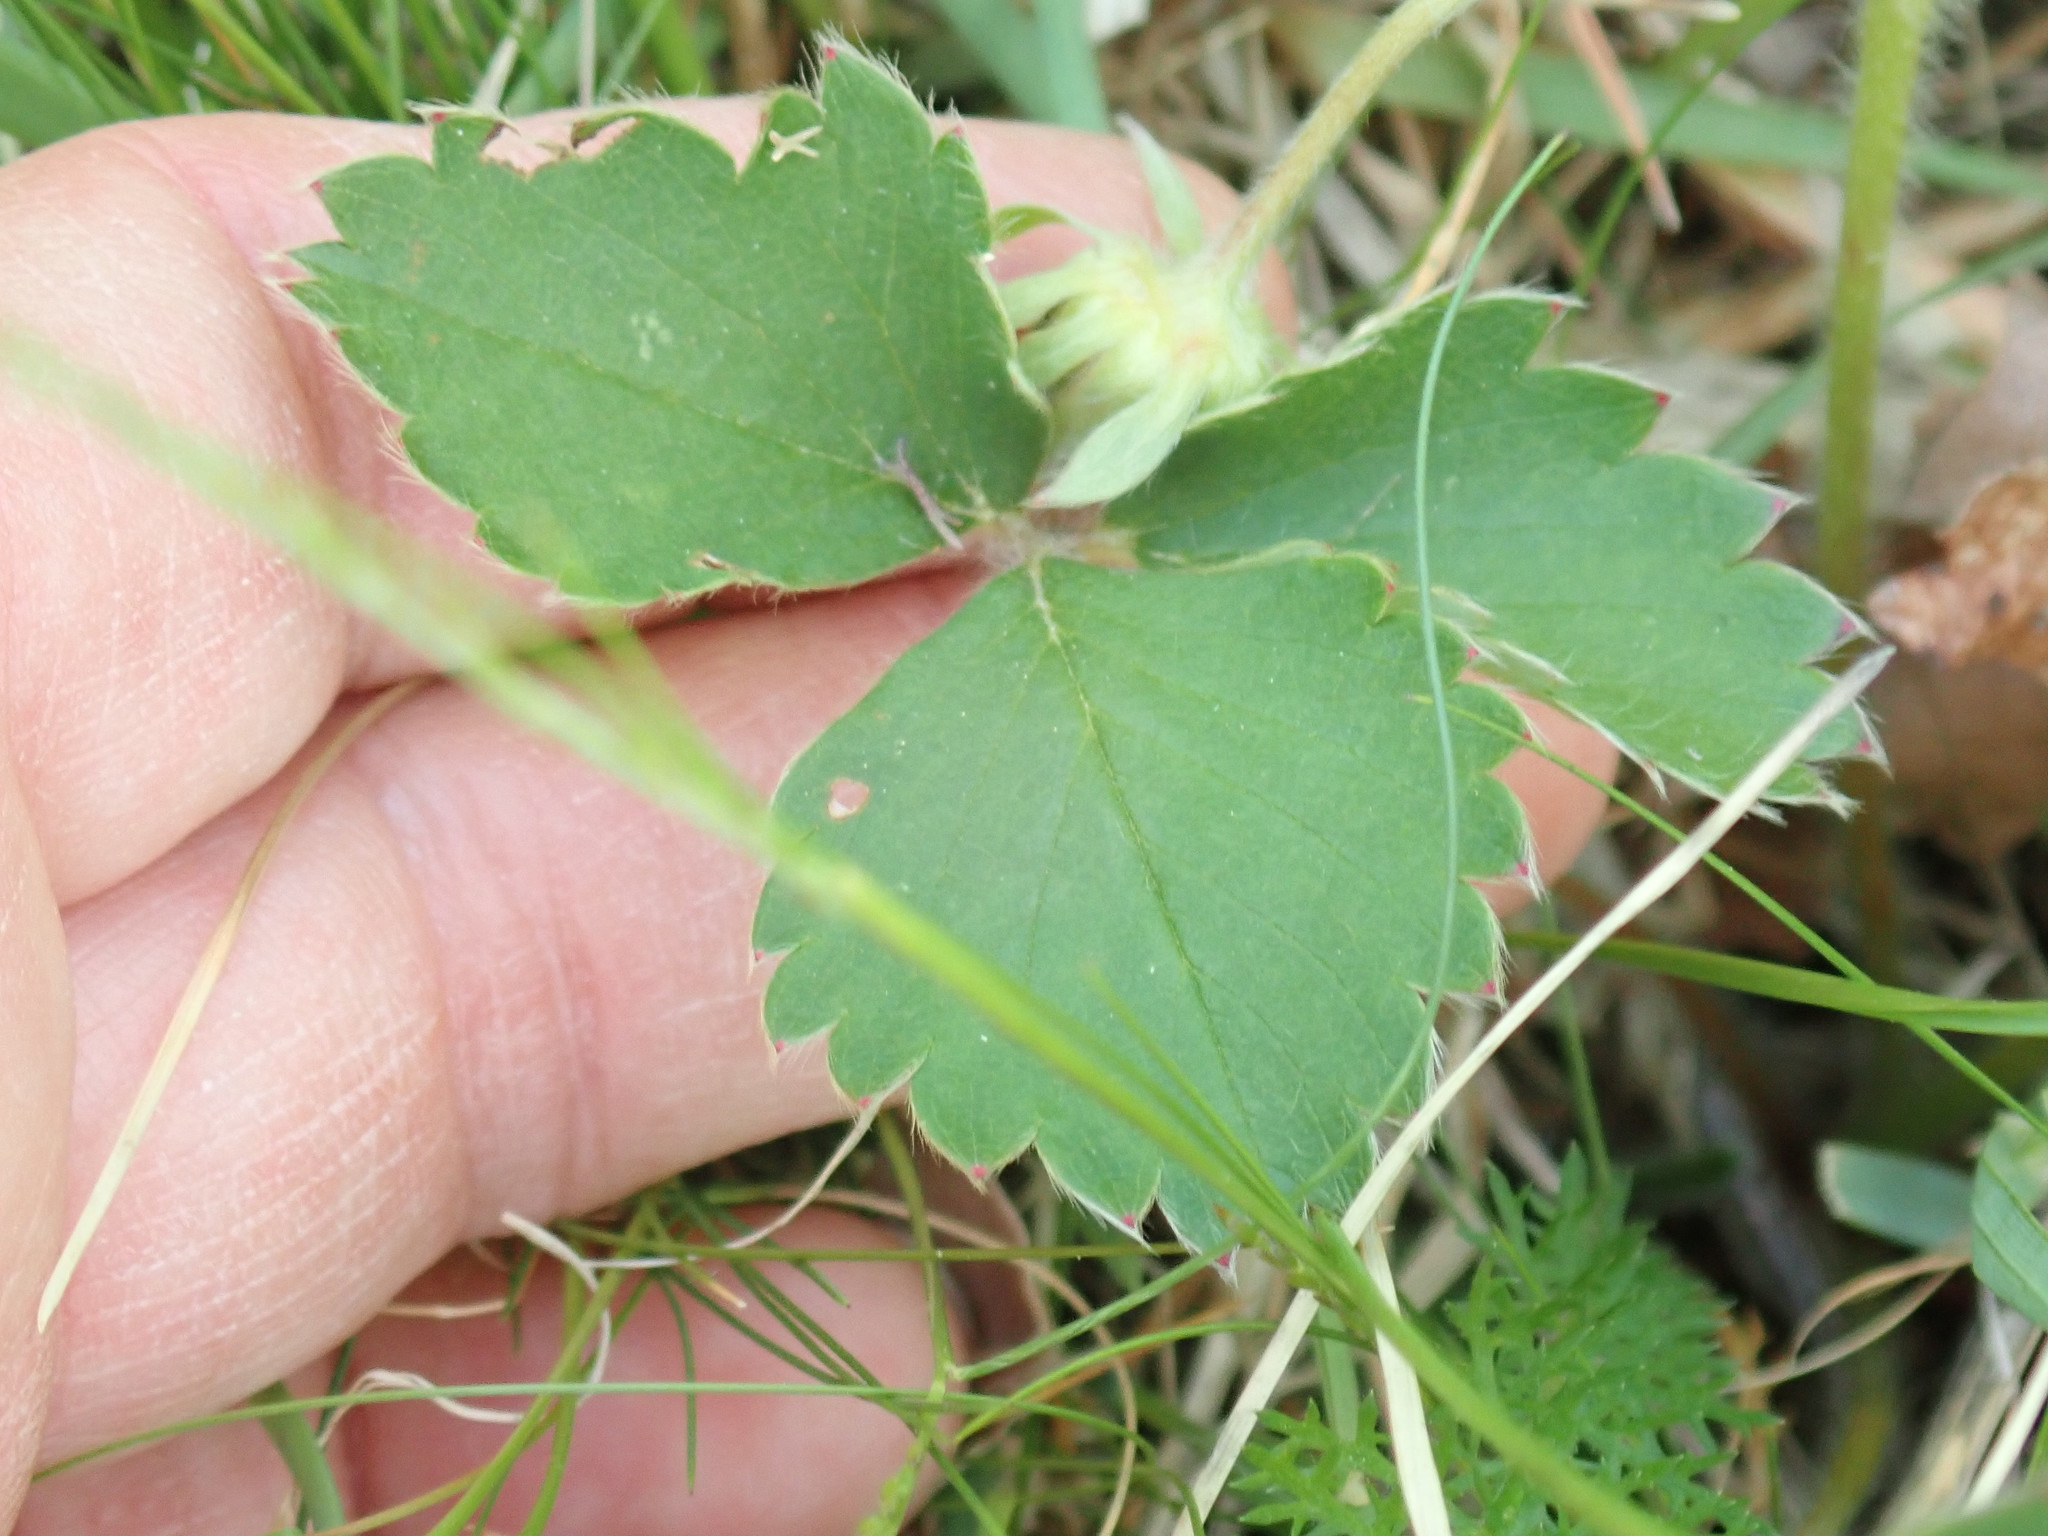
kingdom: Plantae
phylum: Tracheophyta
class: Magnoliopsida
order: Rosales
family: Rosaceae
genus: Fragaria
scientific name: Fragaria virginiana
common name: Thickleaved wild strawberry
